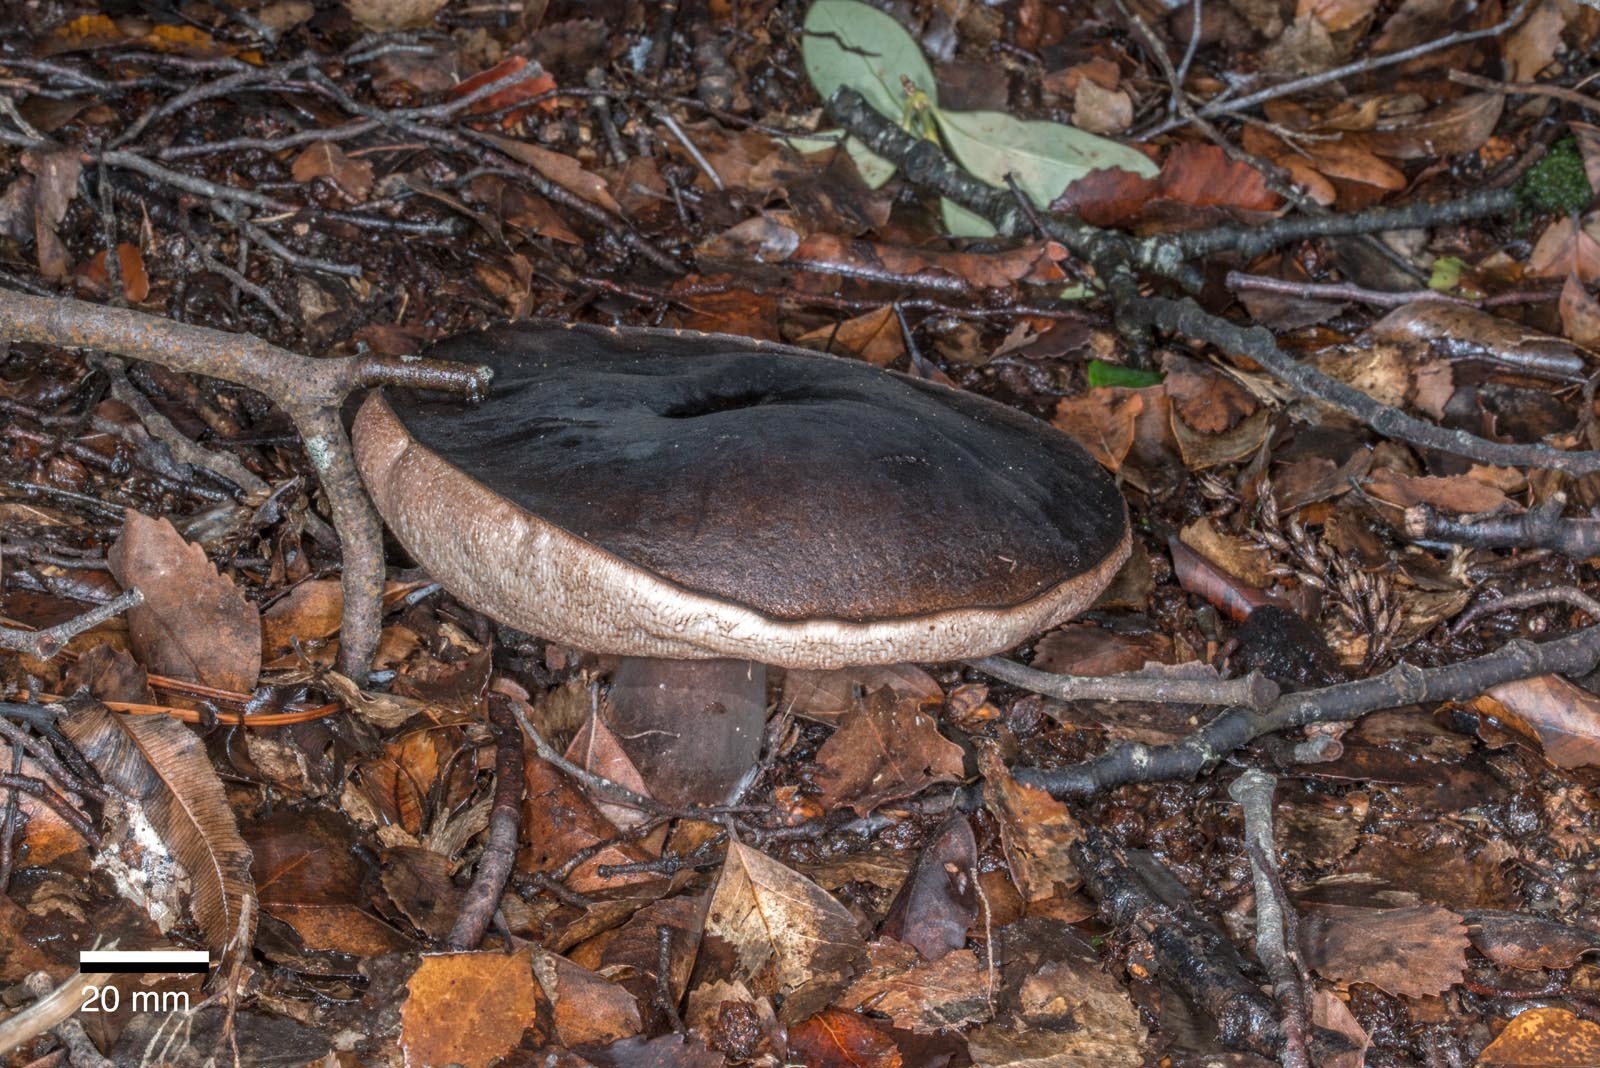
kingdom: Fungi
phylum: Basidiomycota
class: Agaricomycetes
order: Boletales
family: Boletaceae
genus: Porphyrellus
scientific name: Porphyrellus formosus
